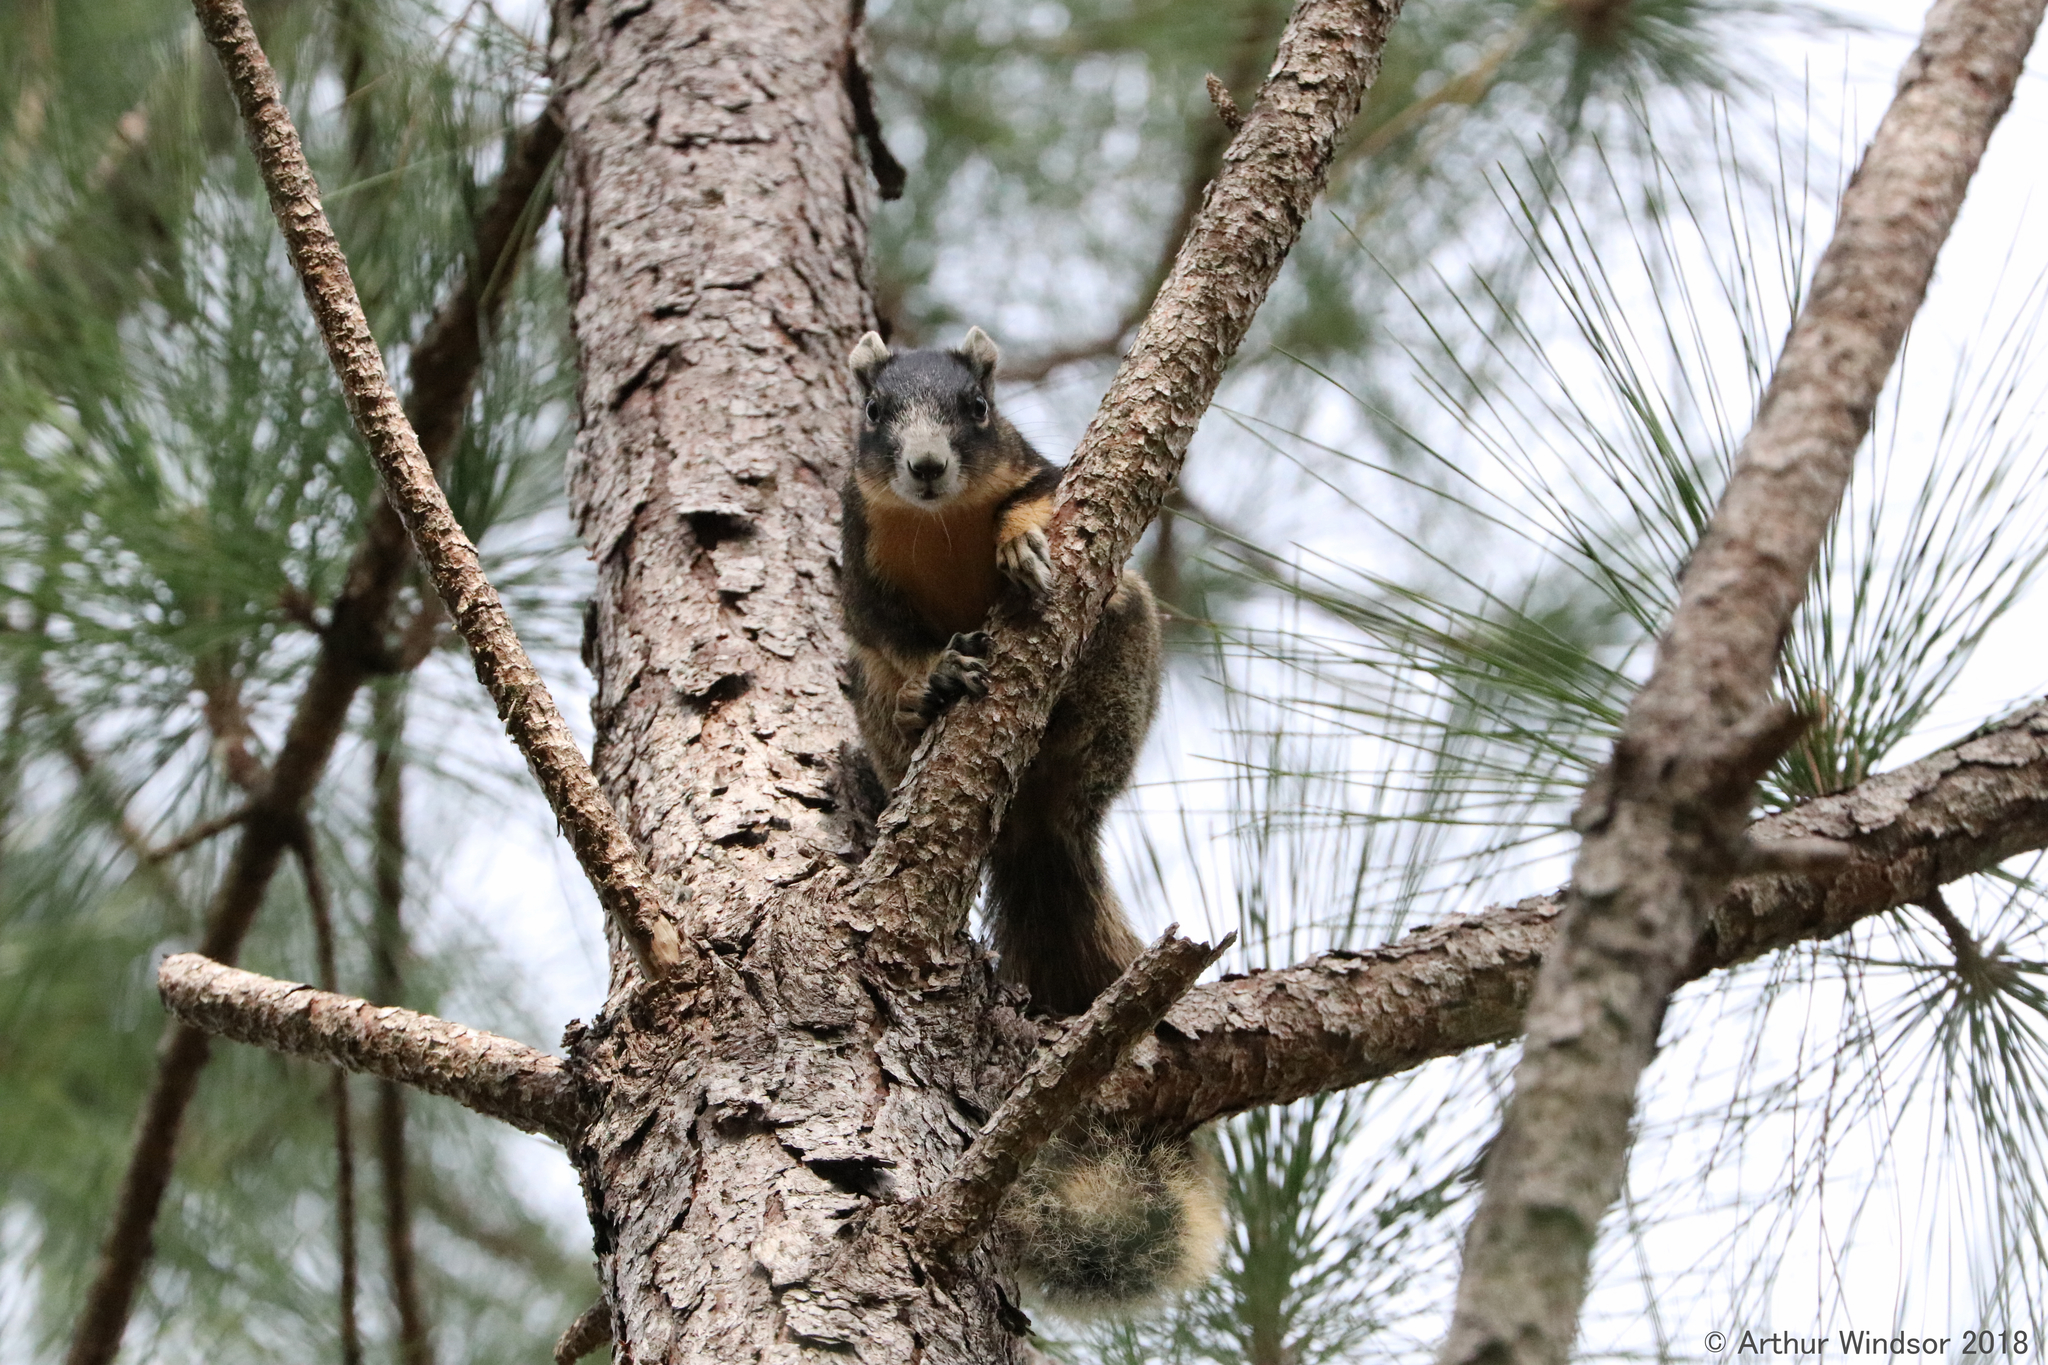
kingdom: Animalia
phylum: Chordata
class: Mammalia
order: Rodentia
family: Sciuridae
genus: Sciurus
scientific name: Sciurus niger
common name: Fox squirrel
